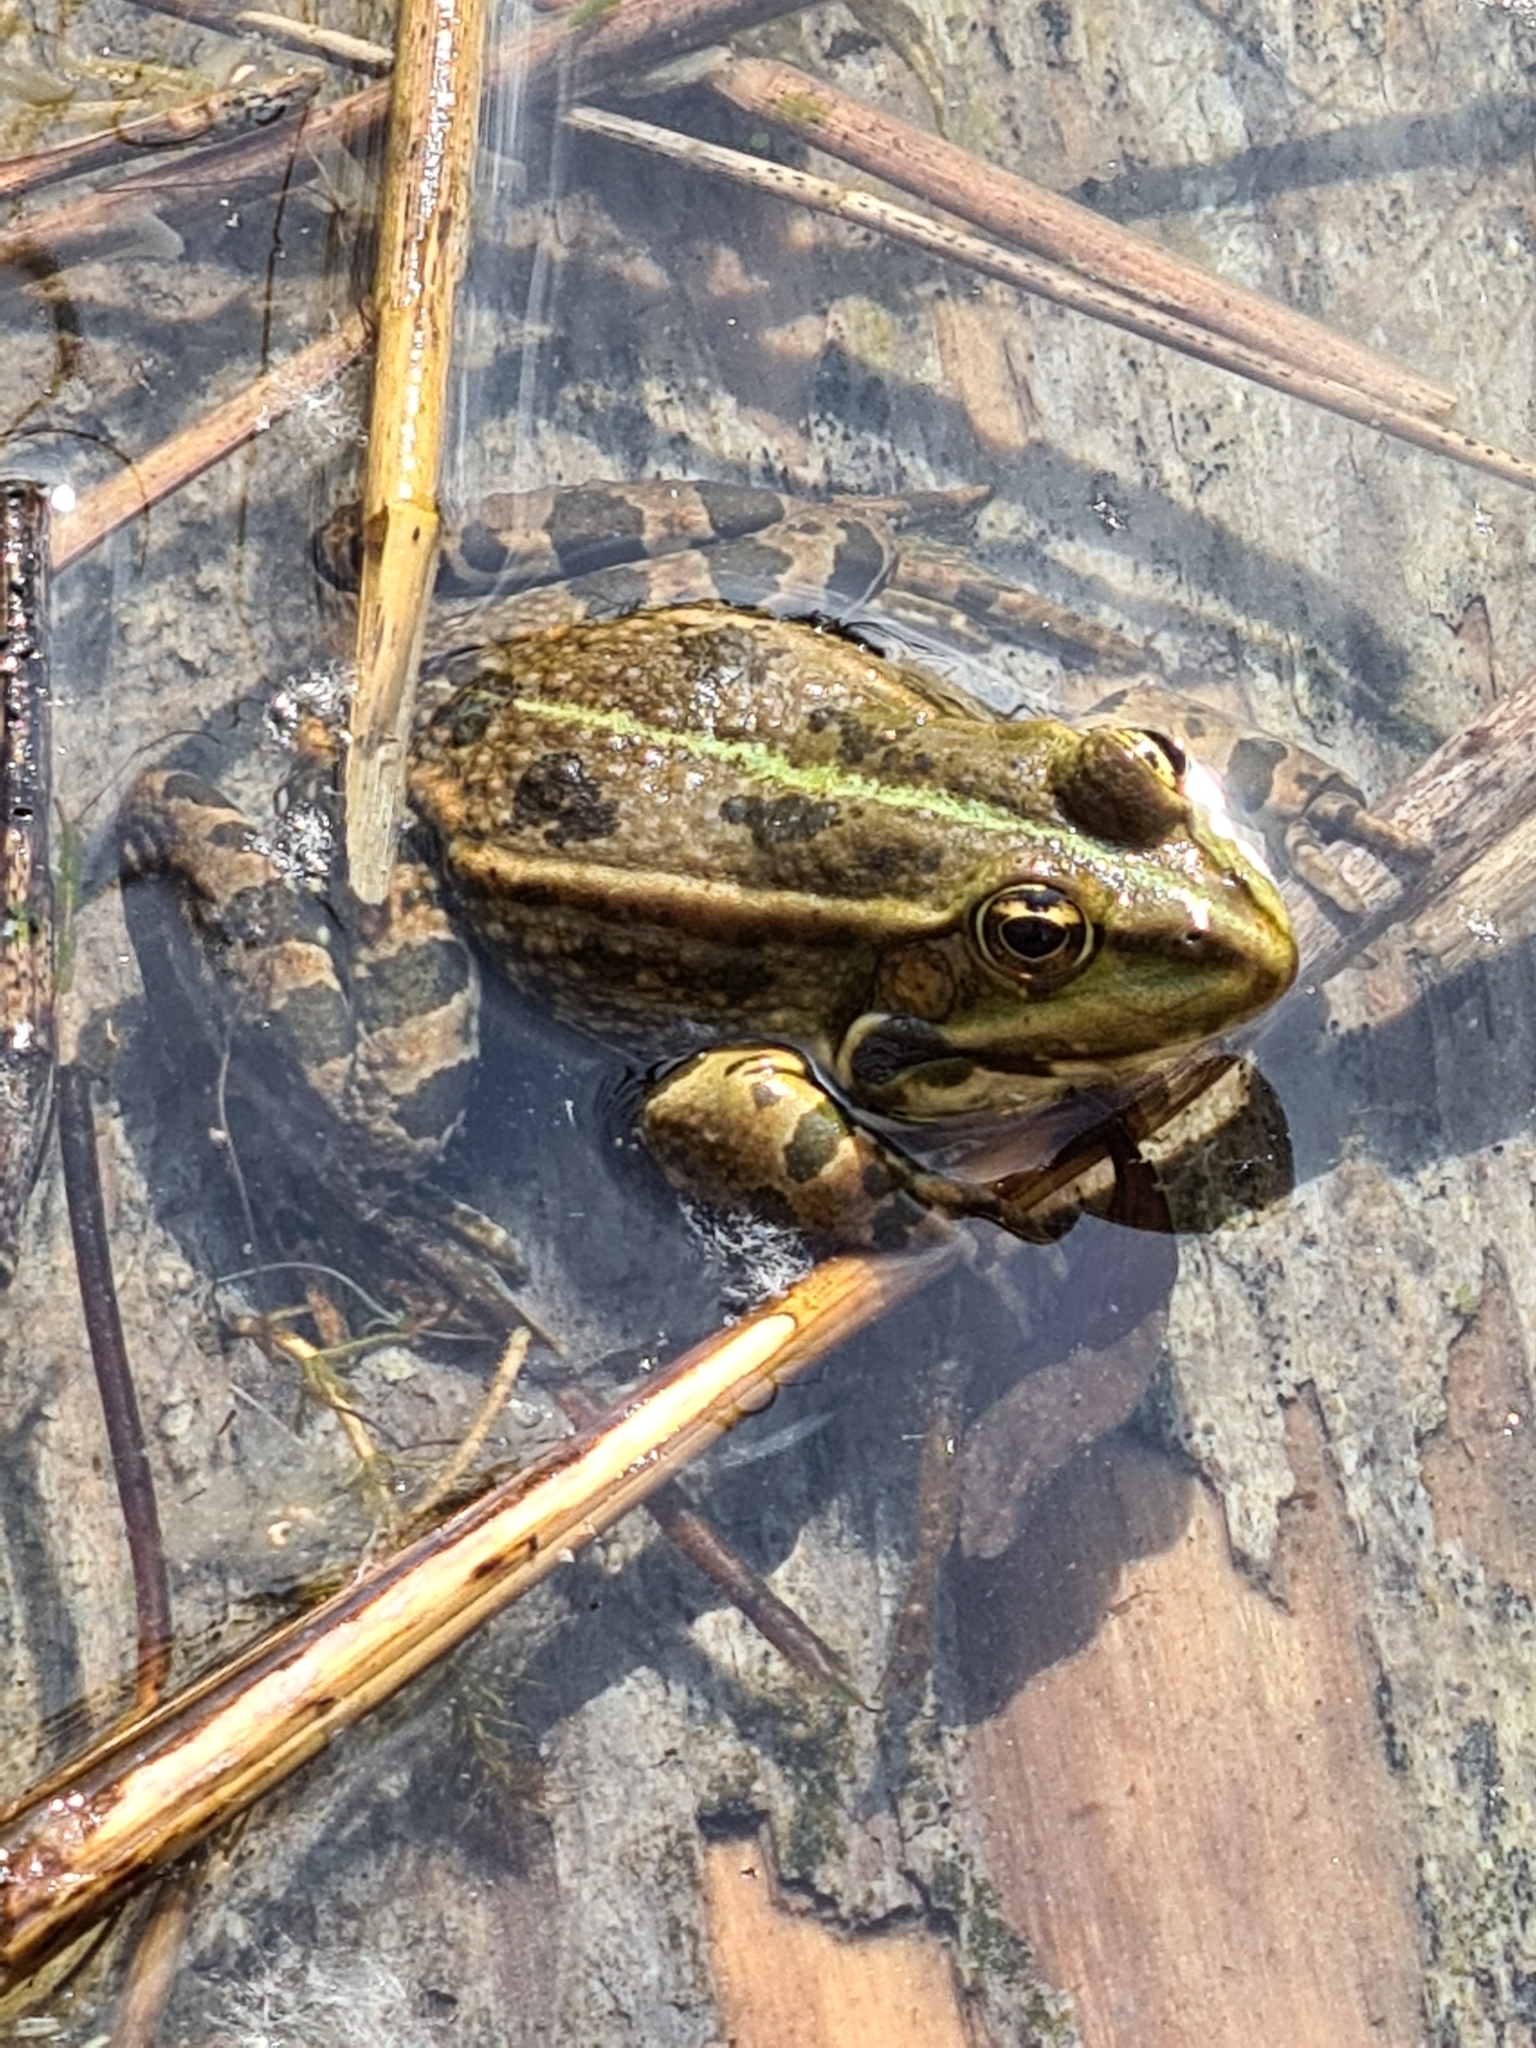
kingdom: Animalia
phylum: Chordata
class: Amphibia
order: Anura
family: Ranidae
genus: Pelophylax
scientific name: Pelophylax
